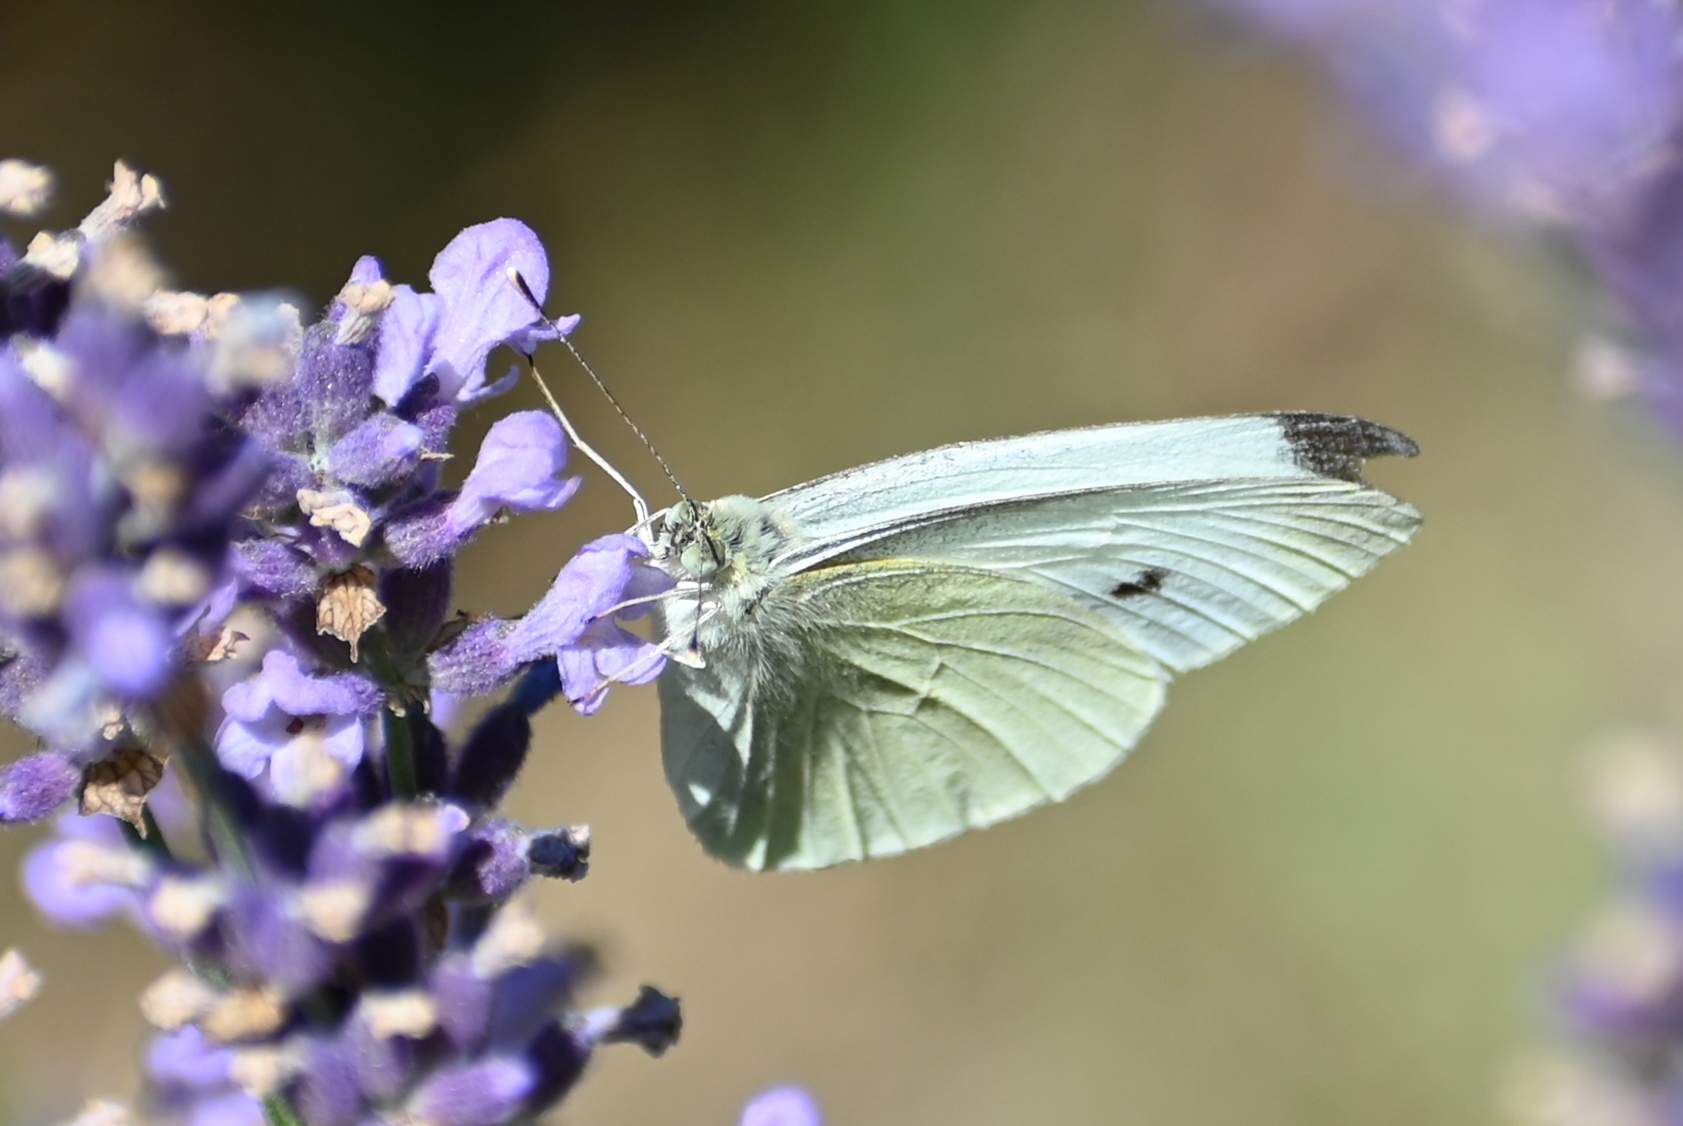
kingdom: Animalia
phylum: Arthropoda
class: Insecta
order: Lepidoptera
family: Pieridae
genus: Pieris
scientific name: Pieris rapae
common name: Small white
